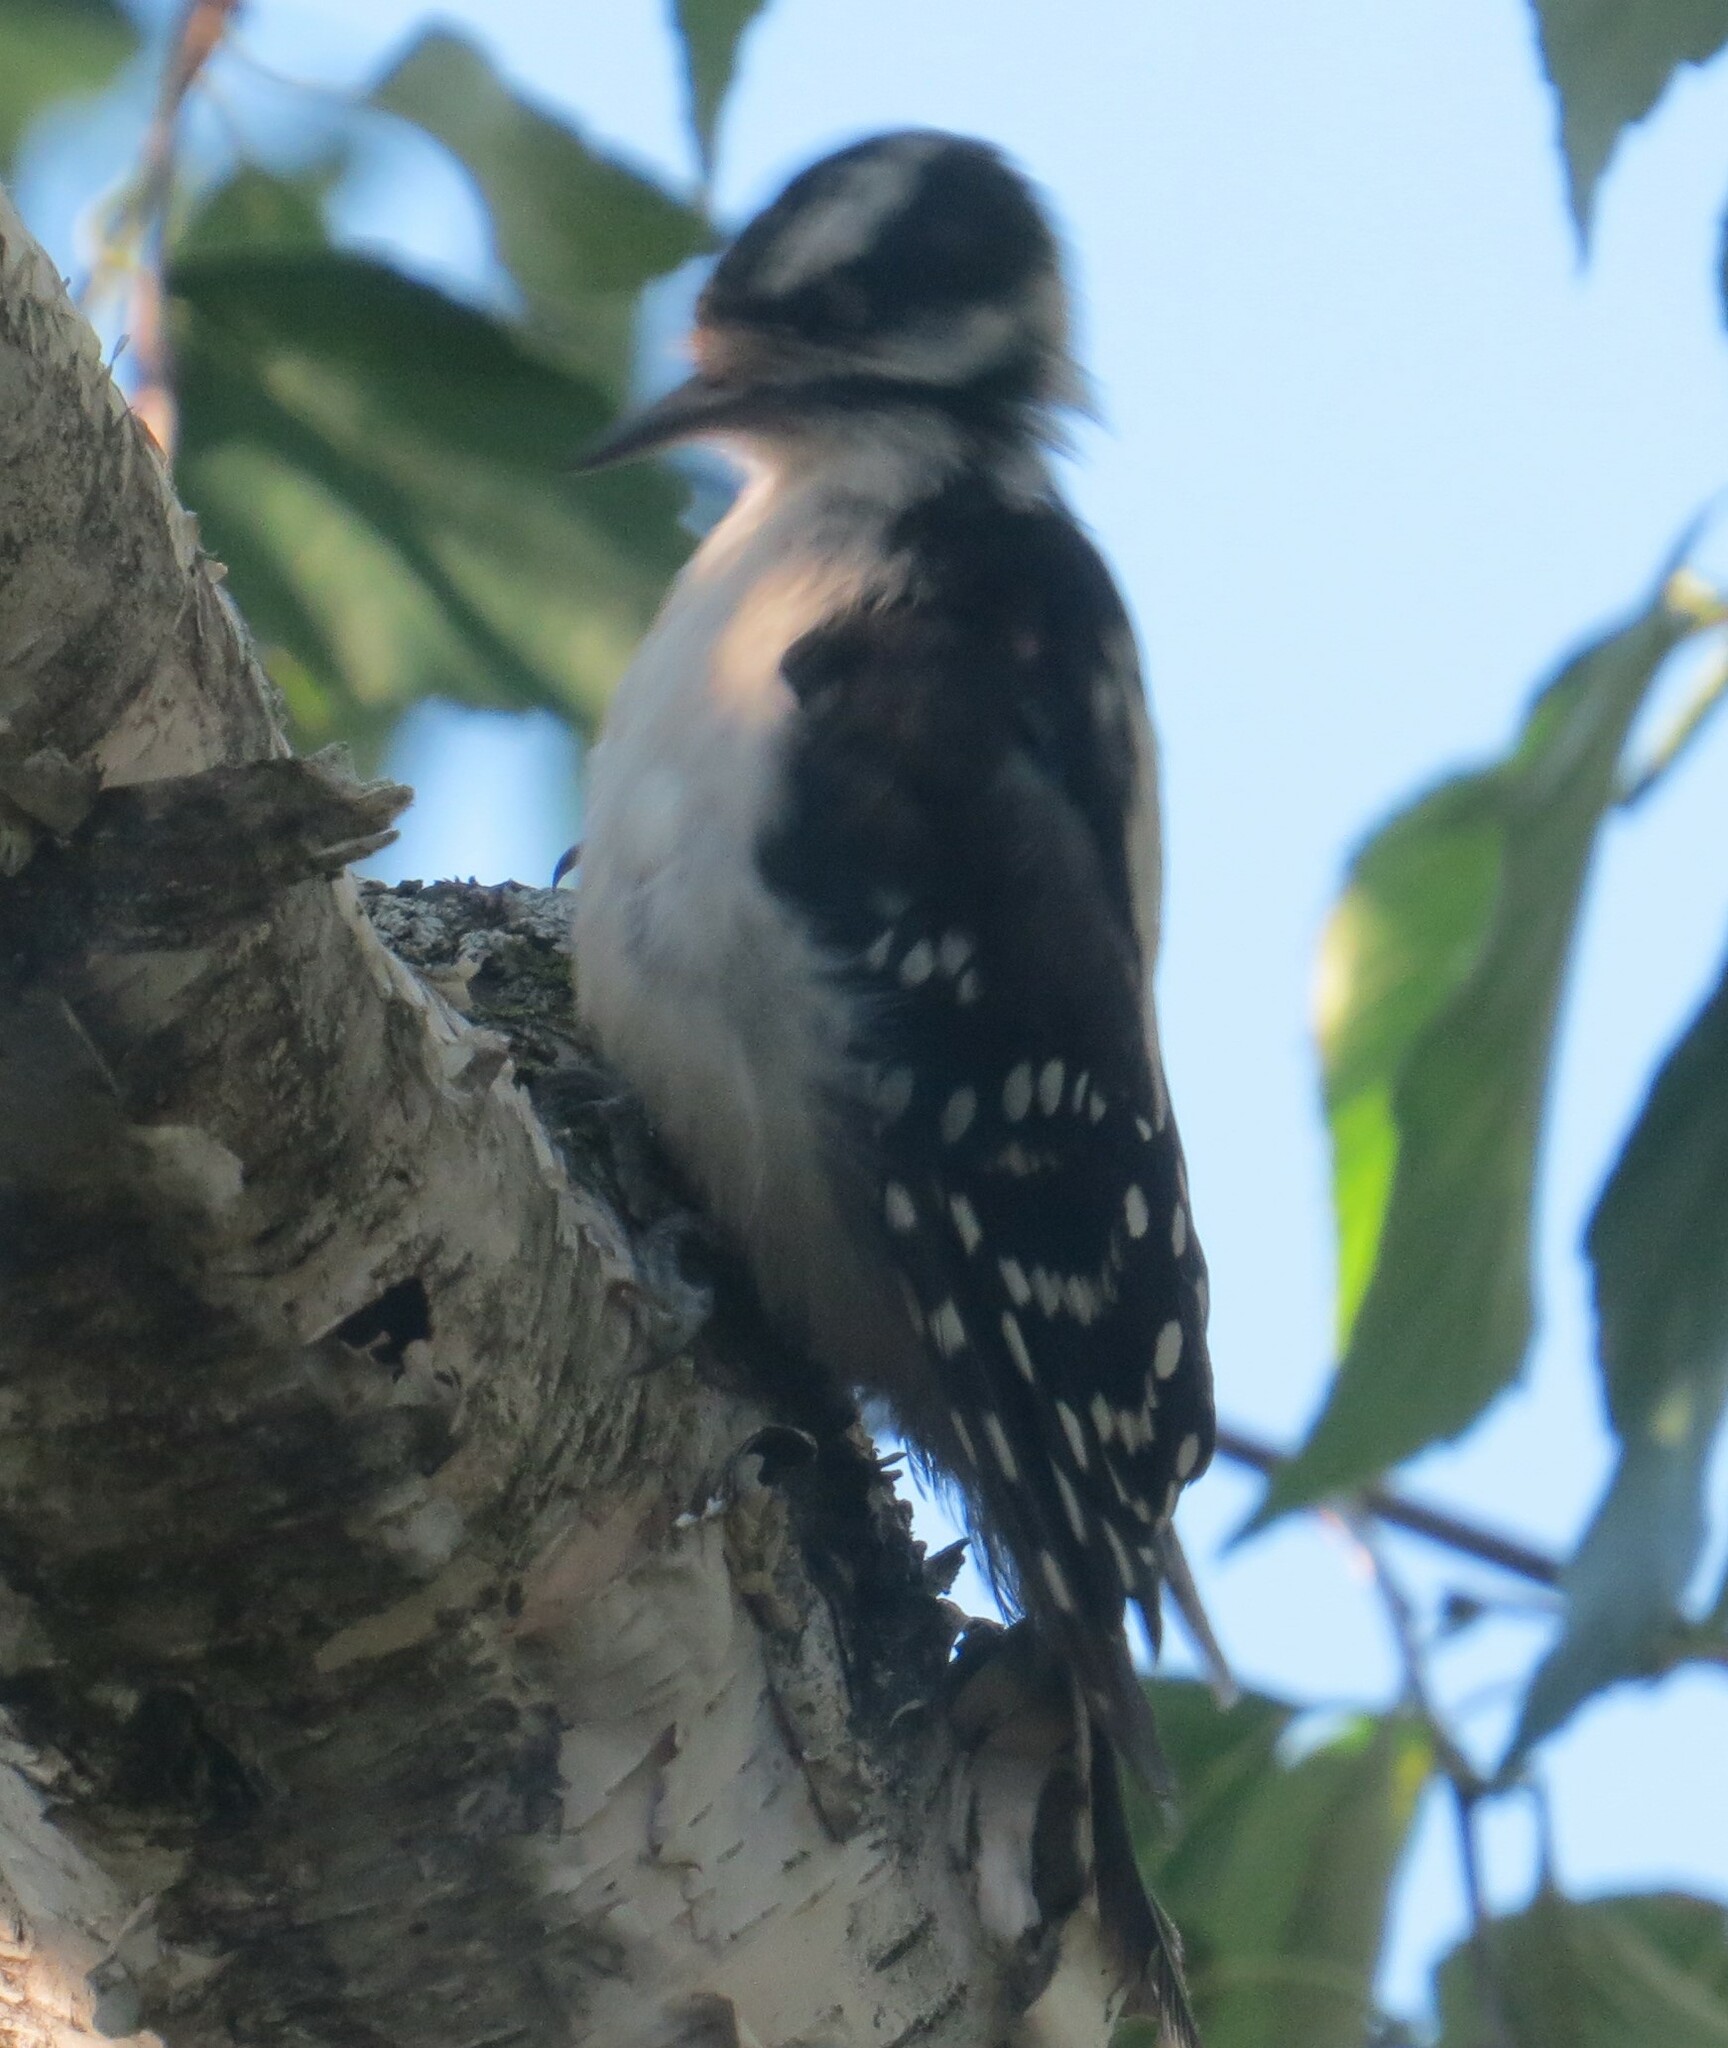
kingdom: Animalia
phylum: Chordata
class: Aves
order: Piciformes
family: Picidae
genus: Dryobates
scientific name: Dryobates pubescens
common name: Downy woodpecker
